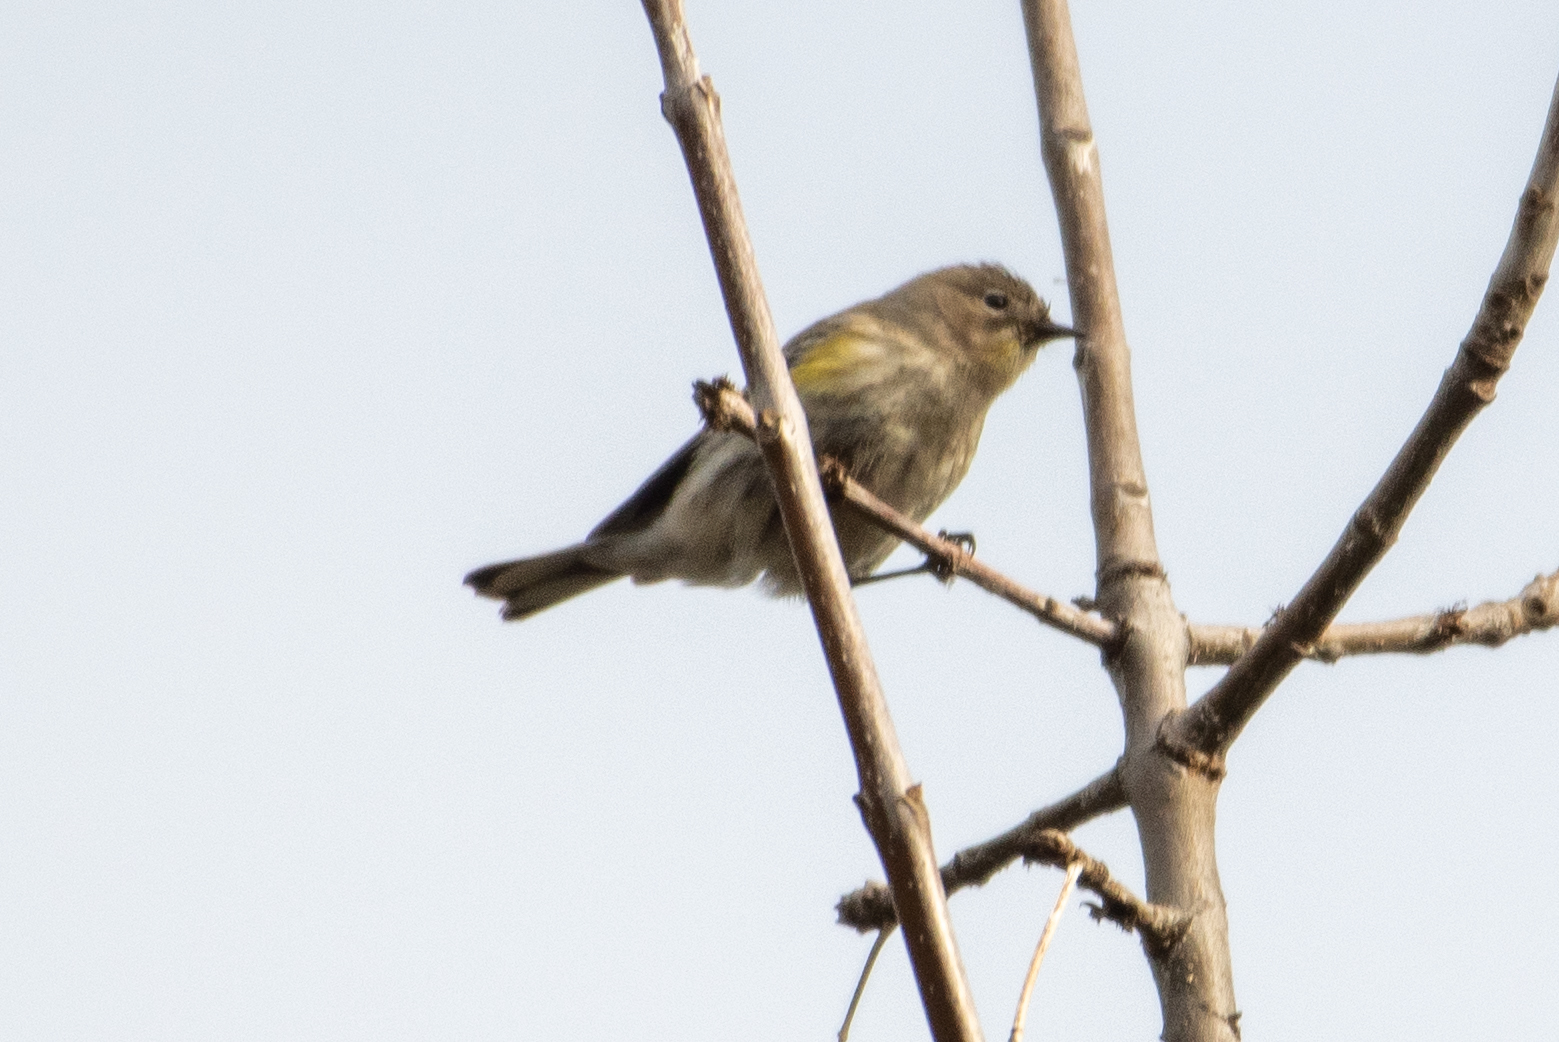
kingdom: Animalia
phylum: Chordata
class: Aves
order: Passeriformes
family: Parulidae
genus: Setophaga
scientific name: Setophaga coronata
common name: Myrtle warbler
